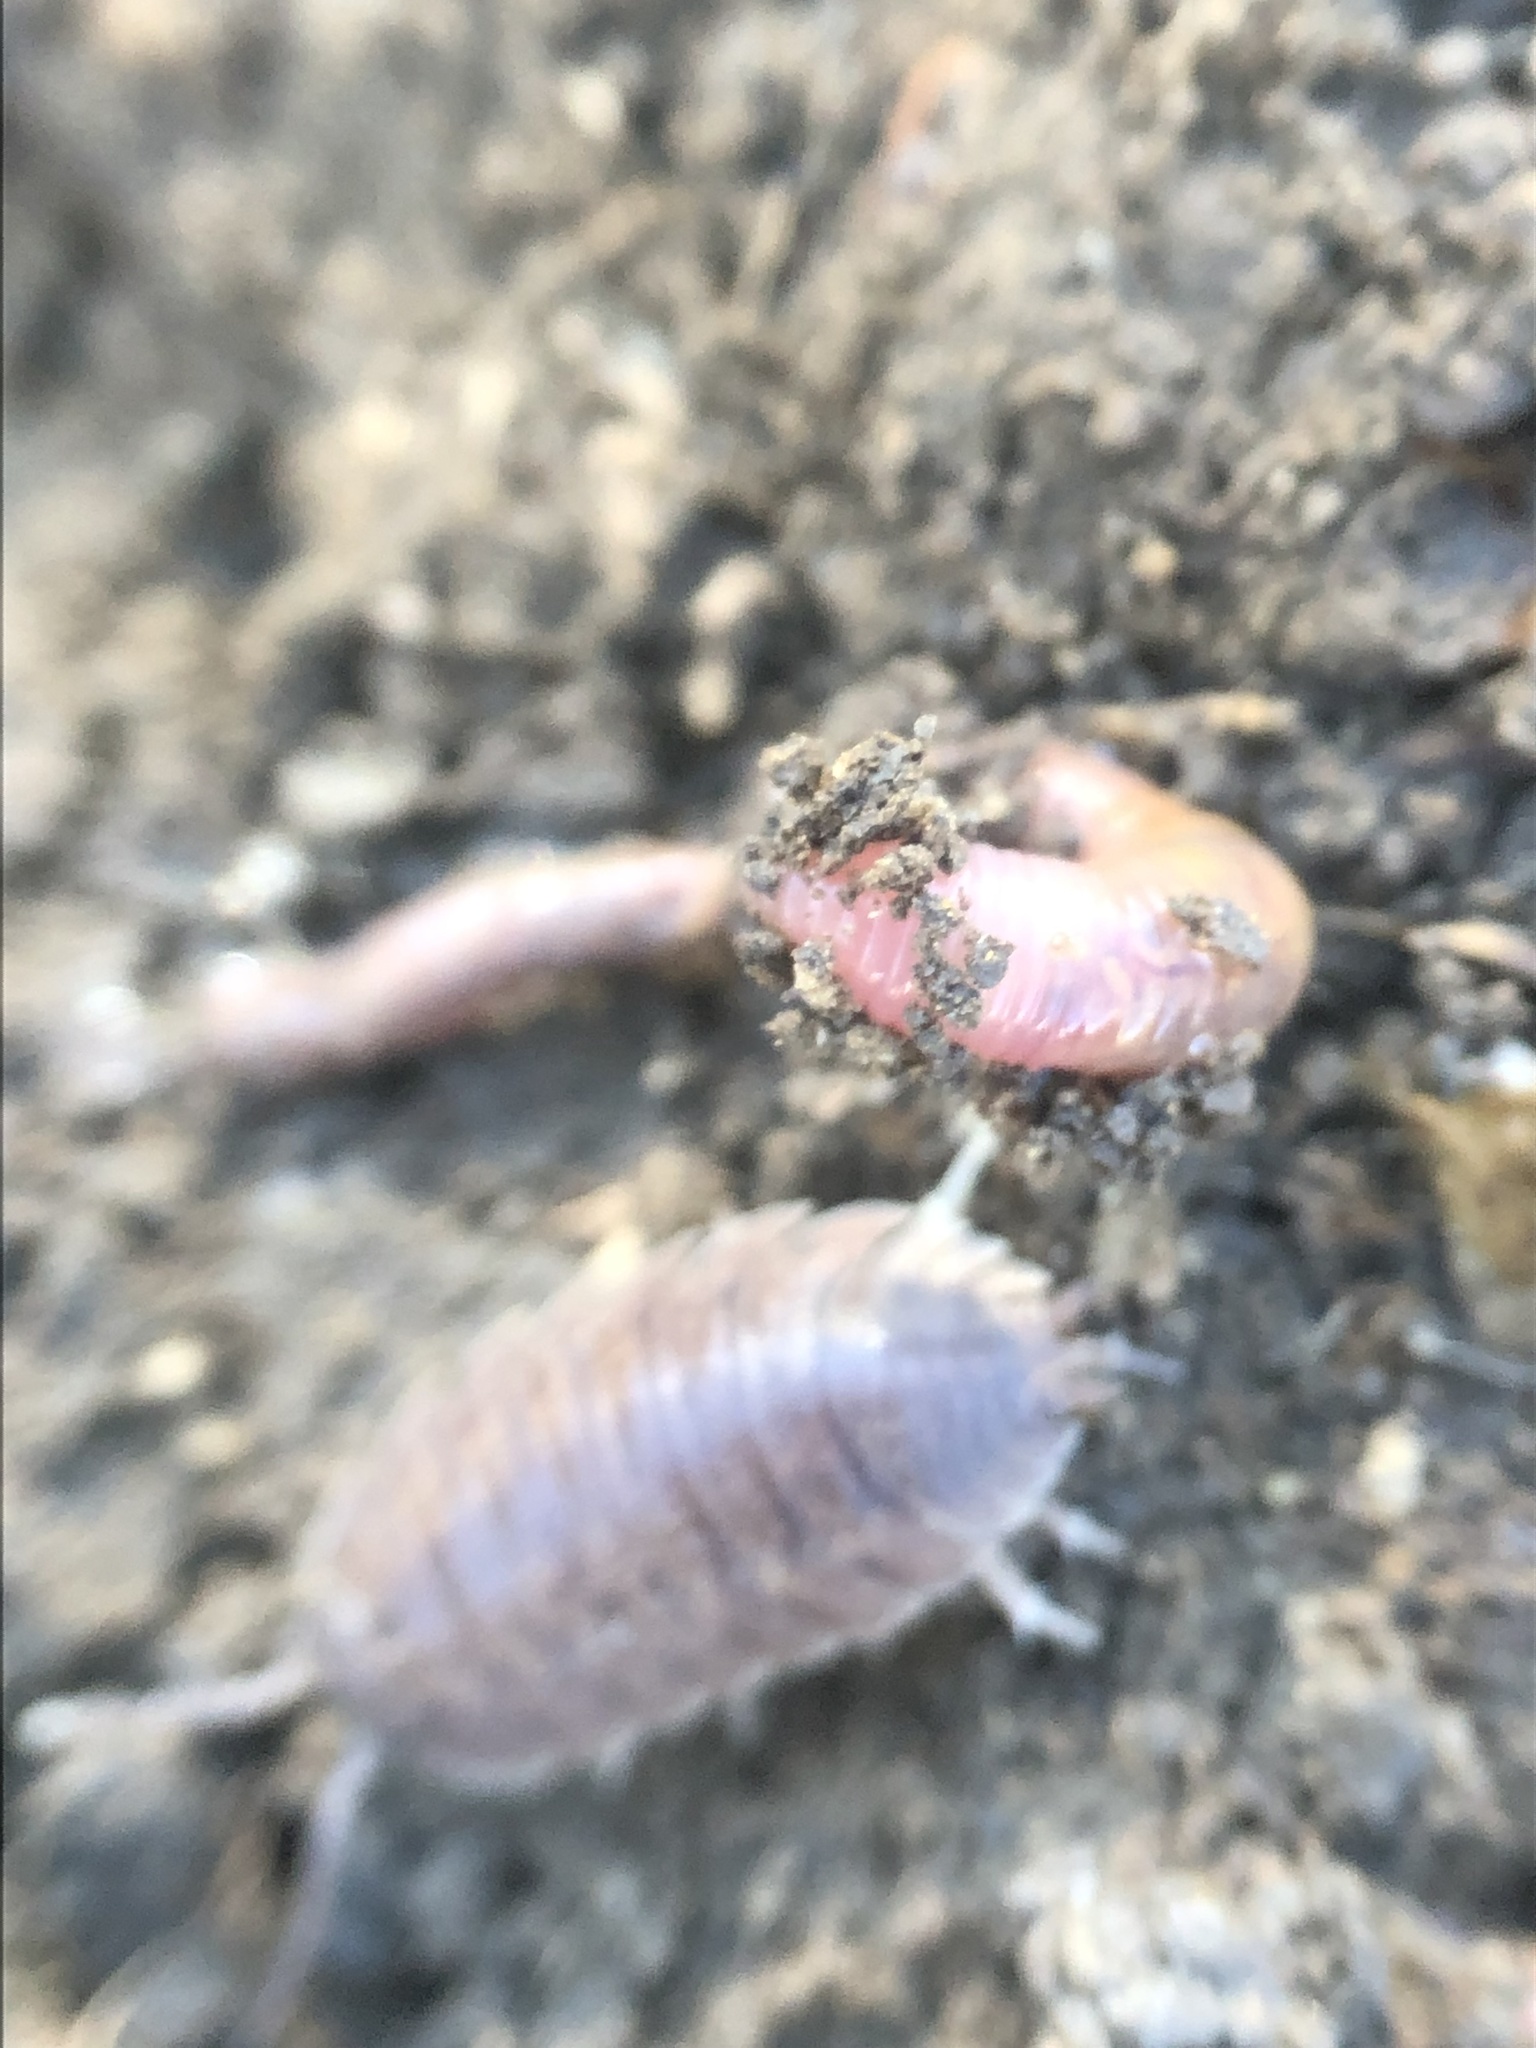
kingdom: Animalia
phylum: Arthropoda
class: Malacostraca
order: Isopoda
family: Porcellionidae
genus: Porcellio
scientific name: Porcellio laevis
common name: Swift woodlouse
